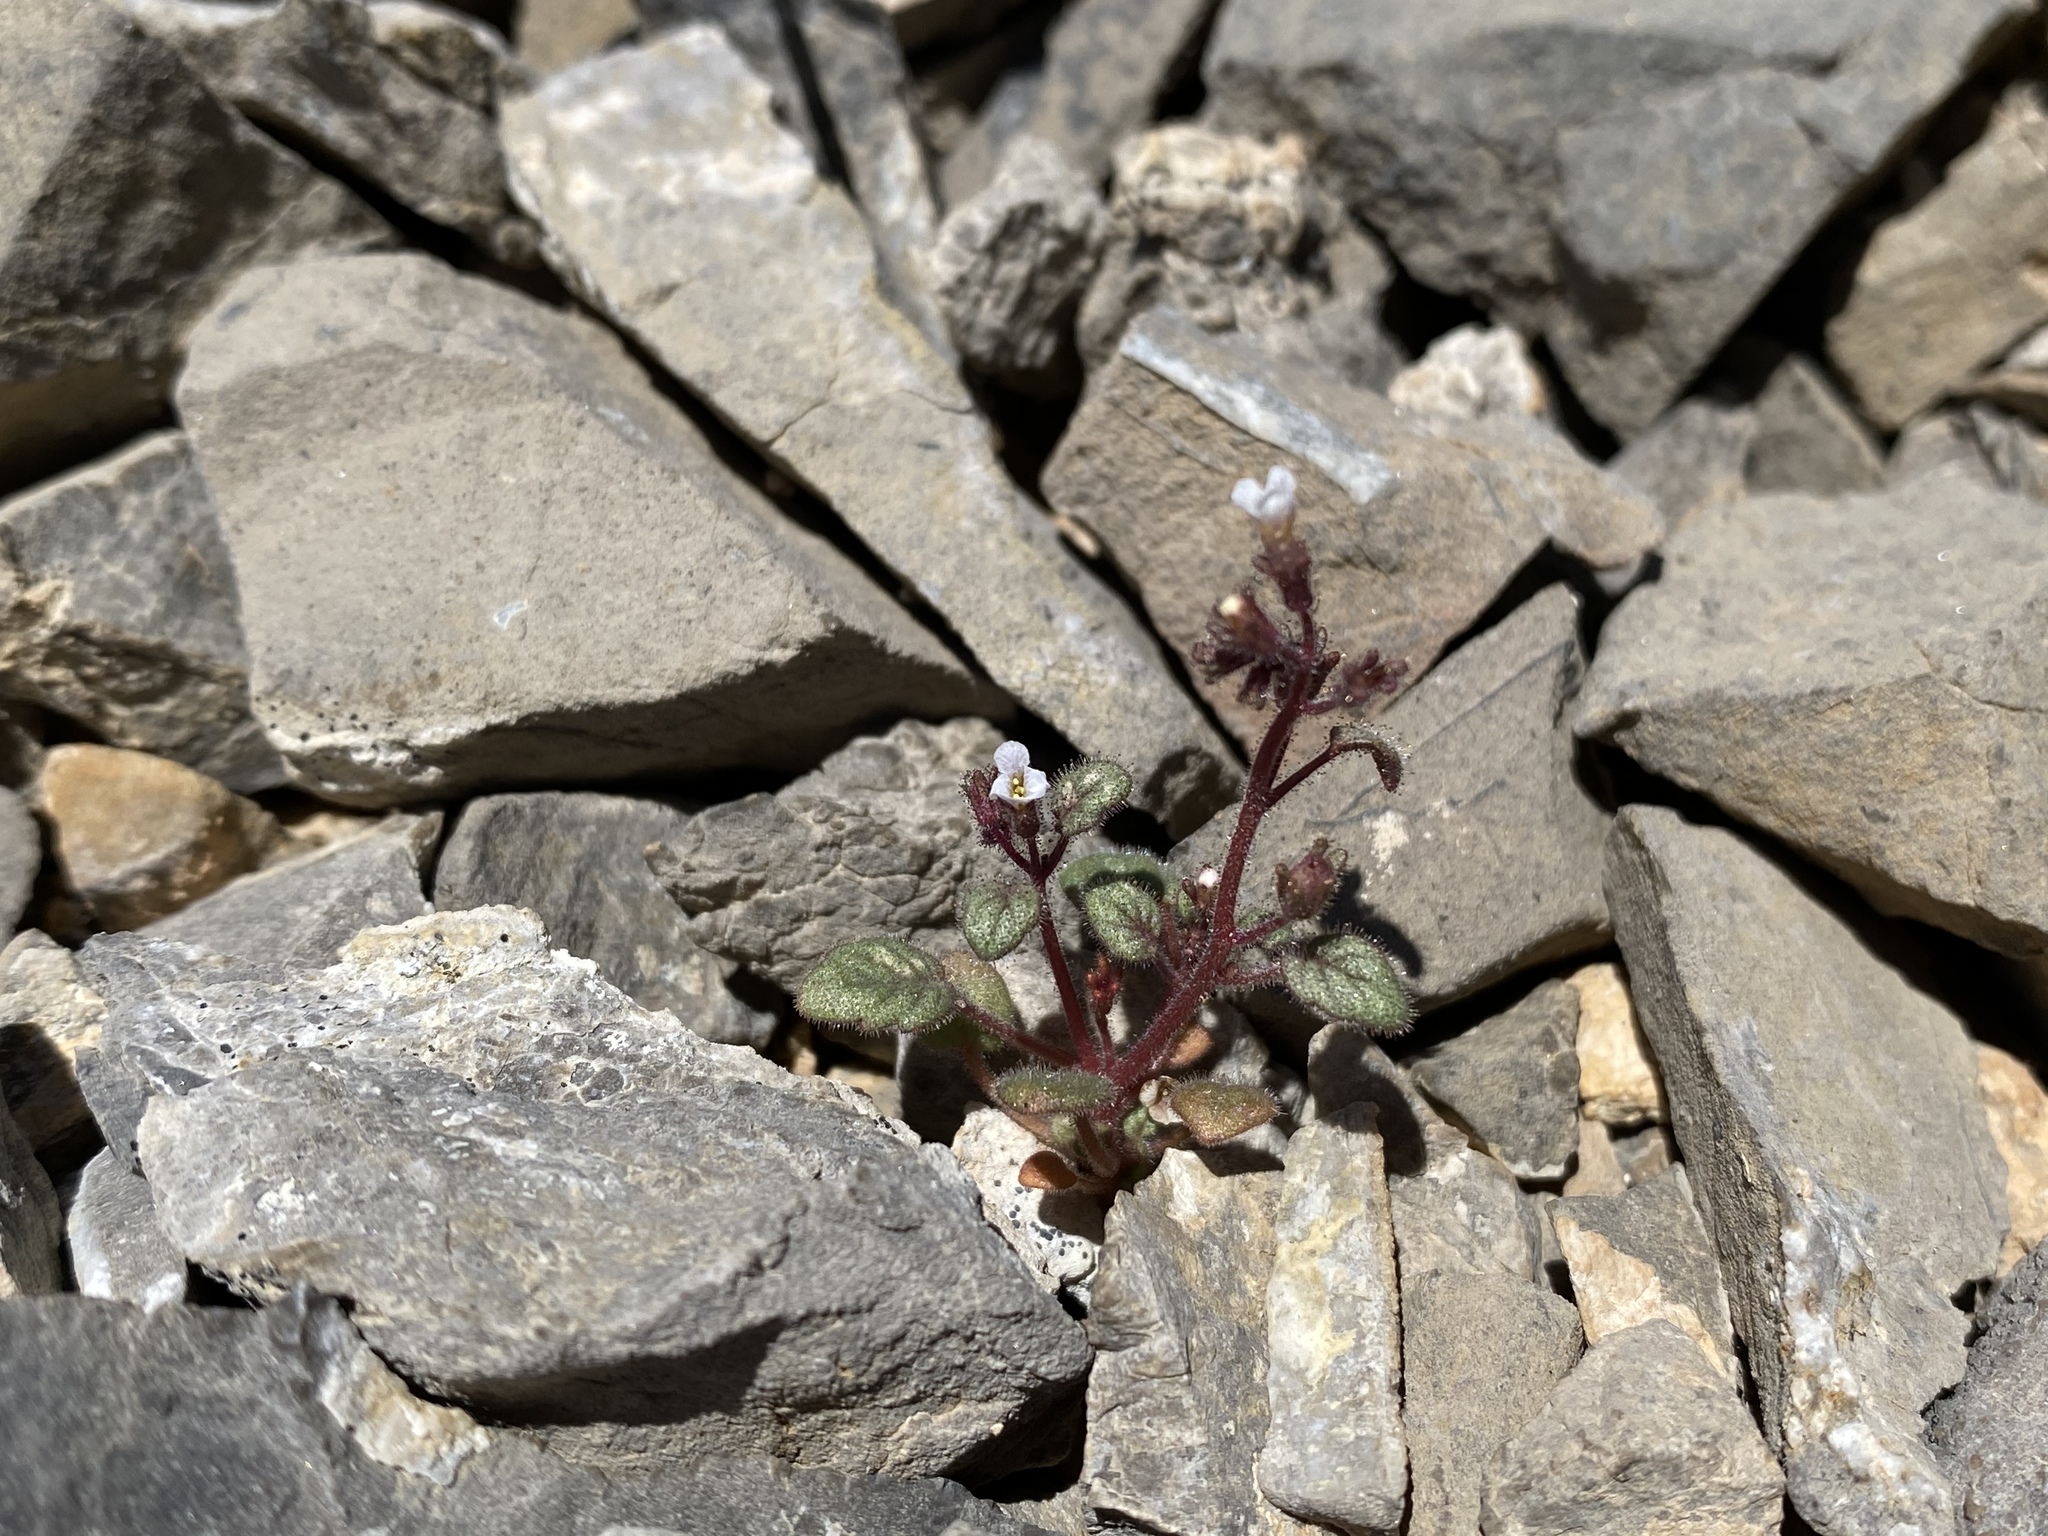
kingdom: Plantae
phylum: Tracheophyta
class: Magnoliopsida
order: Boraginales
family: Hydrophyllaceae
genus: Phacelia
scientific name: Phacelia barnebyana
